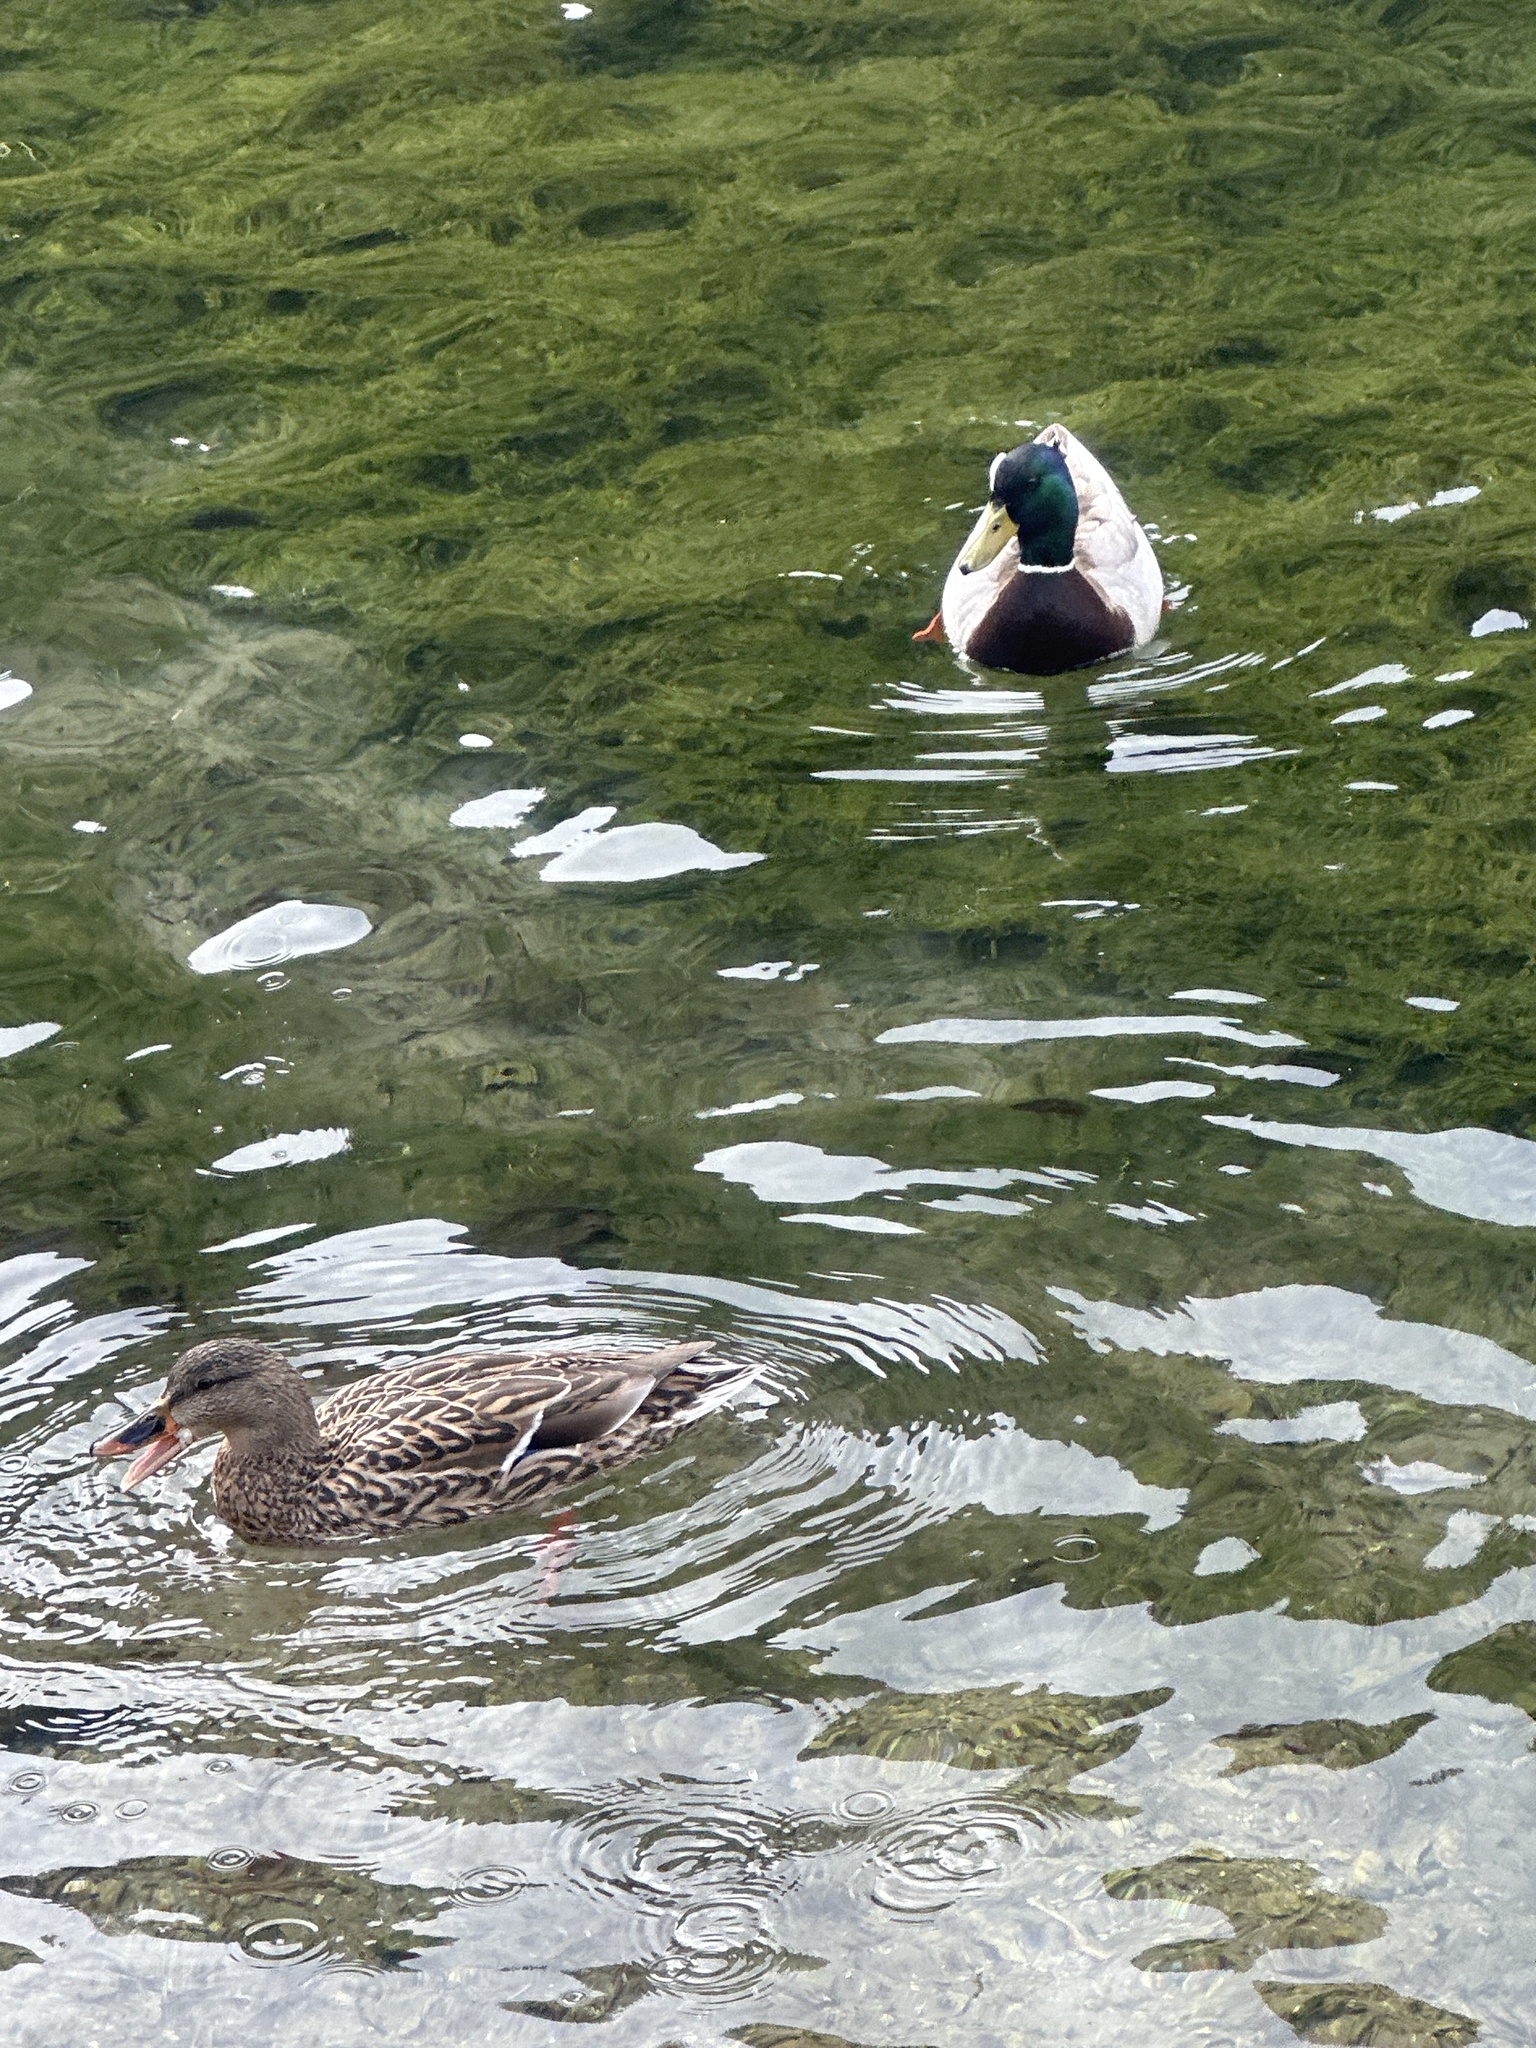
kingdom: Animalia
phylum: Chordata
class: Aves
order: Anseriformes
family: Anatidae
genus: Anas
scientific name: Anas platyrhynchos
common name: Mallard
